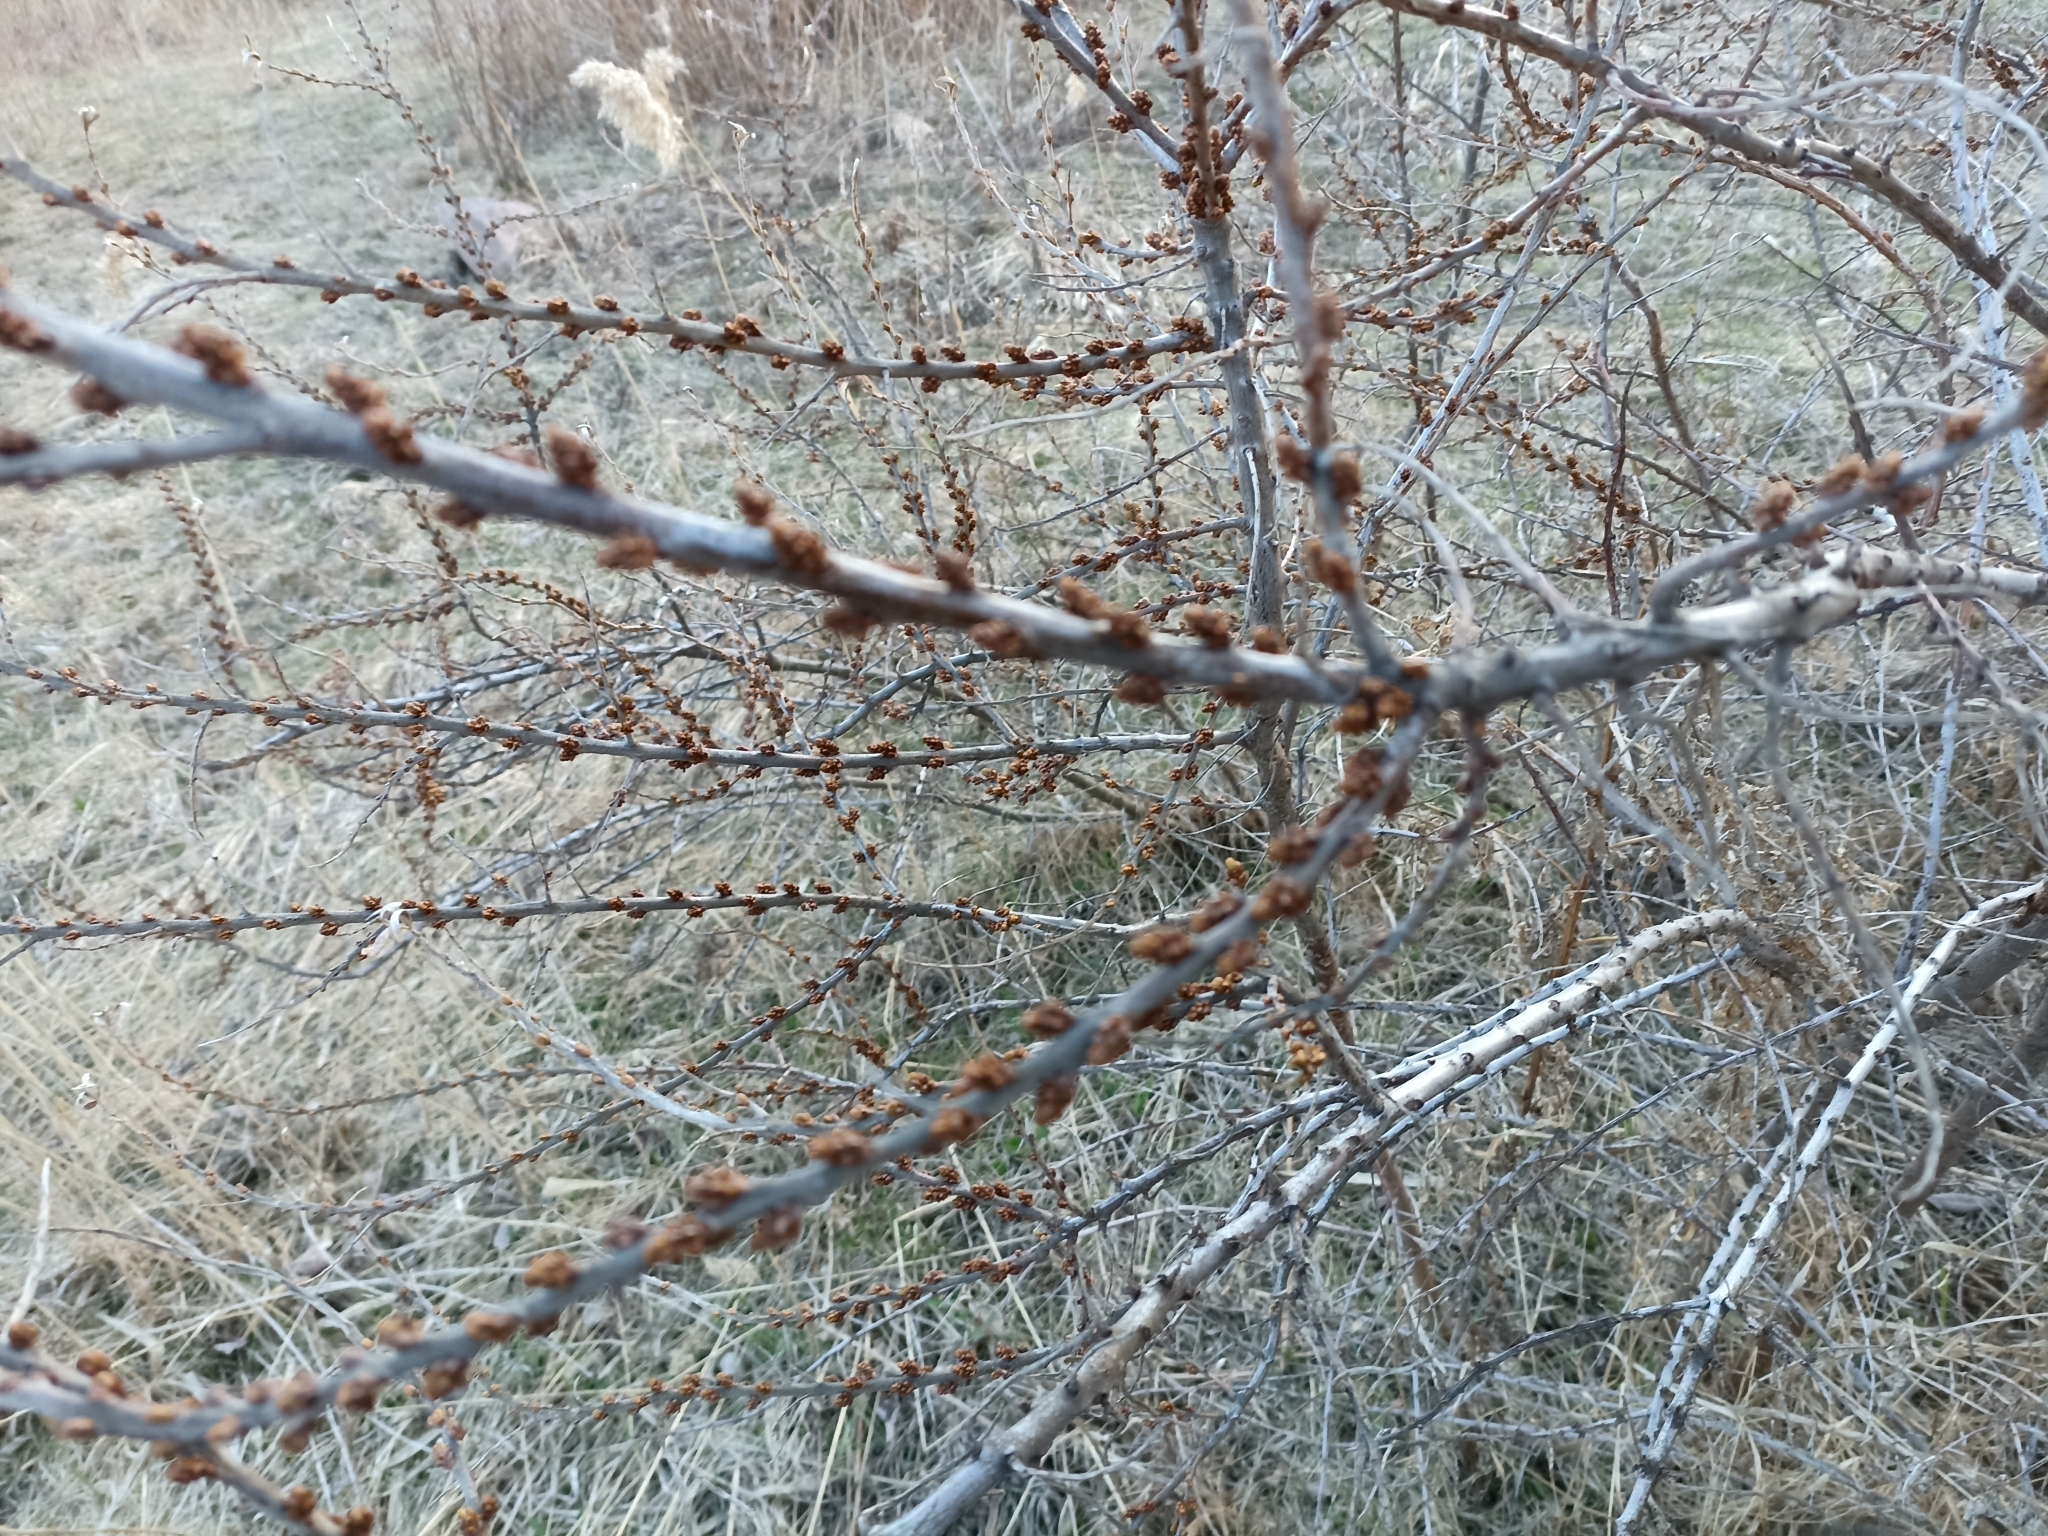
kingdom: Plantae
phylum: Tracheophyta
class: Magnoliopsida
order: Rosales
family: Elaeagnaceae
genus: Hippophae
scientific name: Hippophae rhamnoides
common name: Sea-buckthorn
